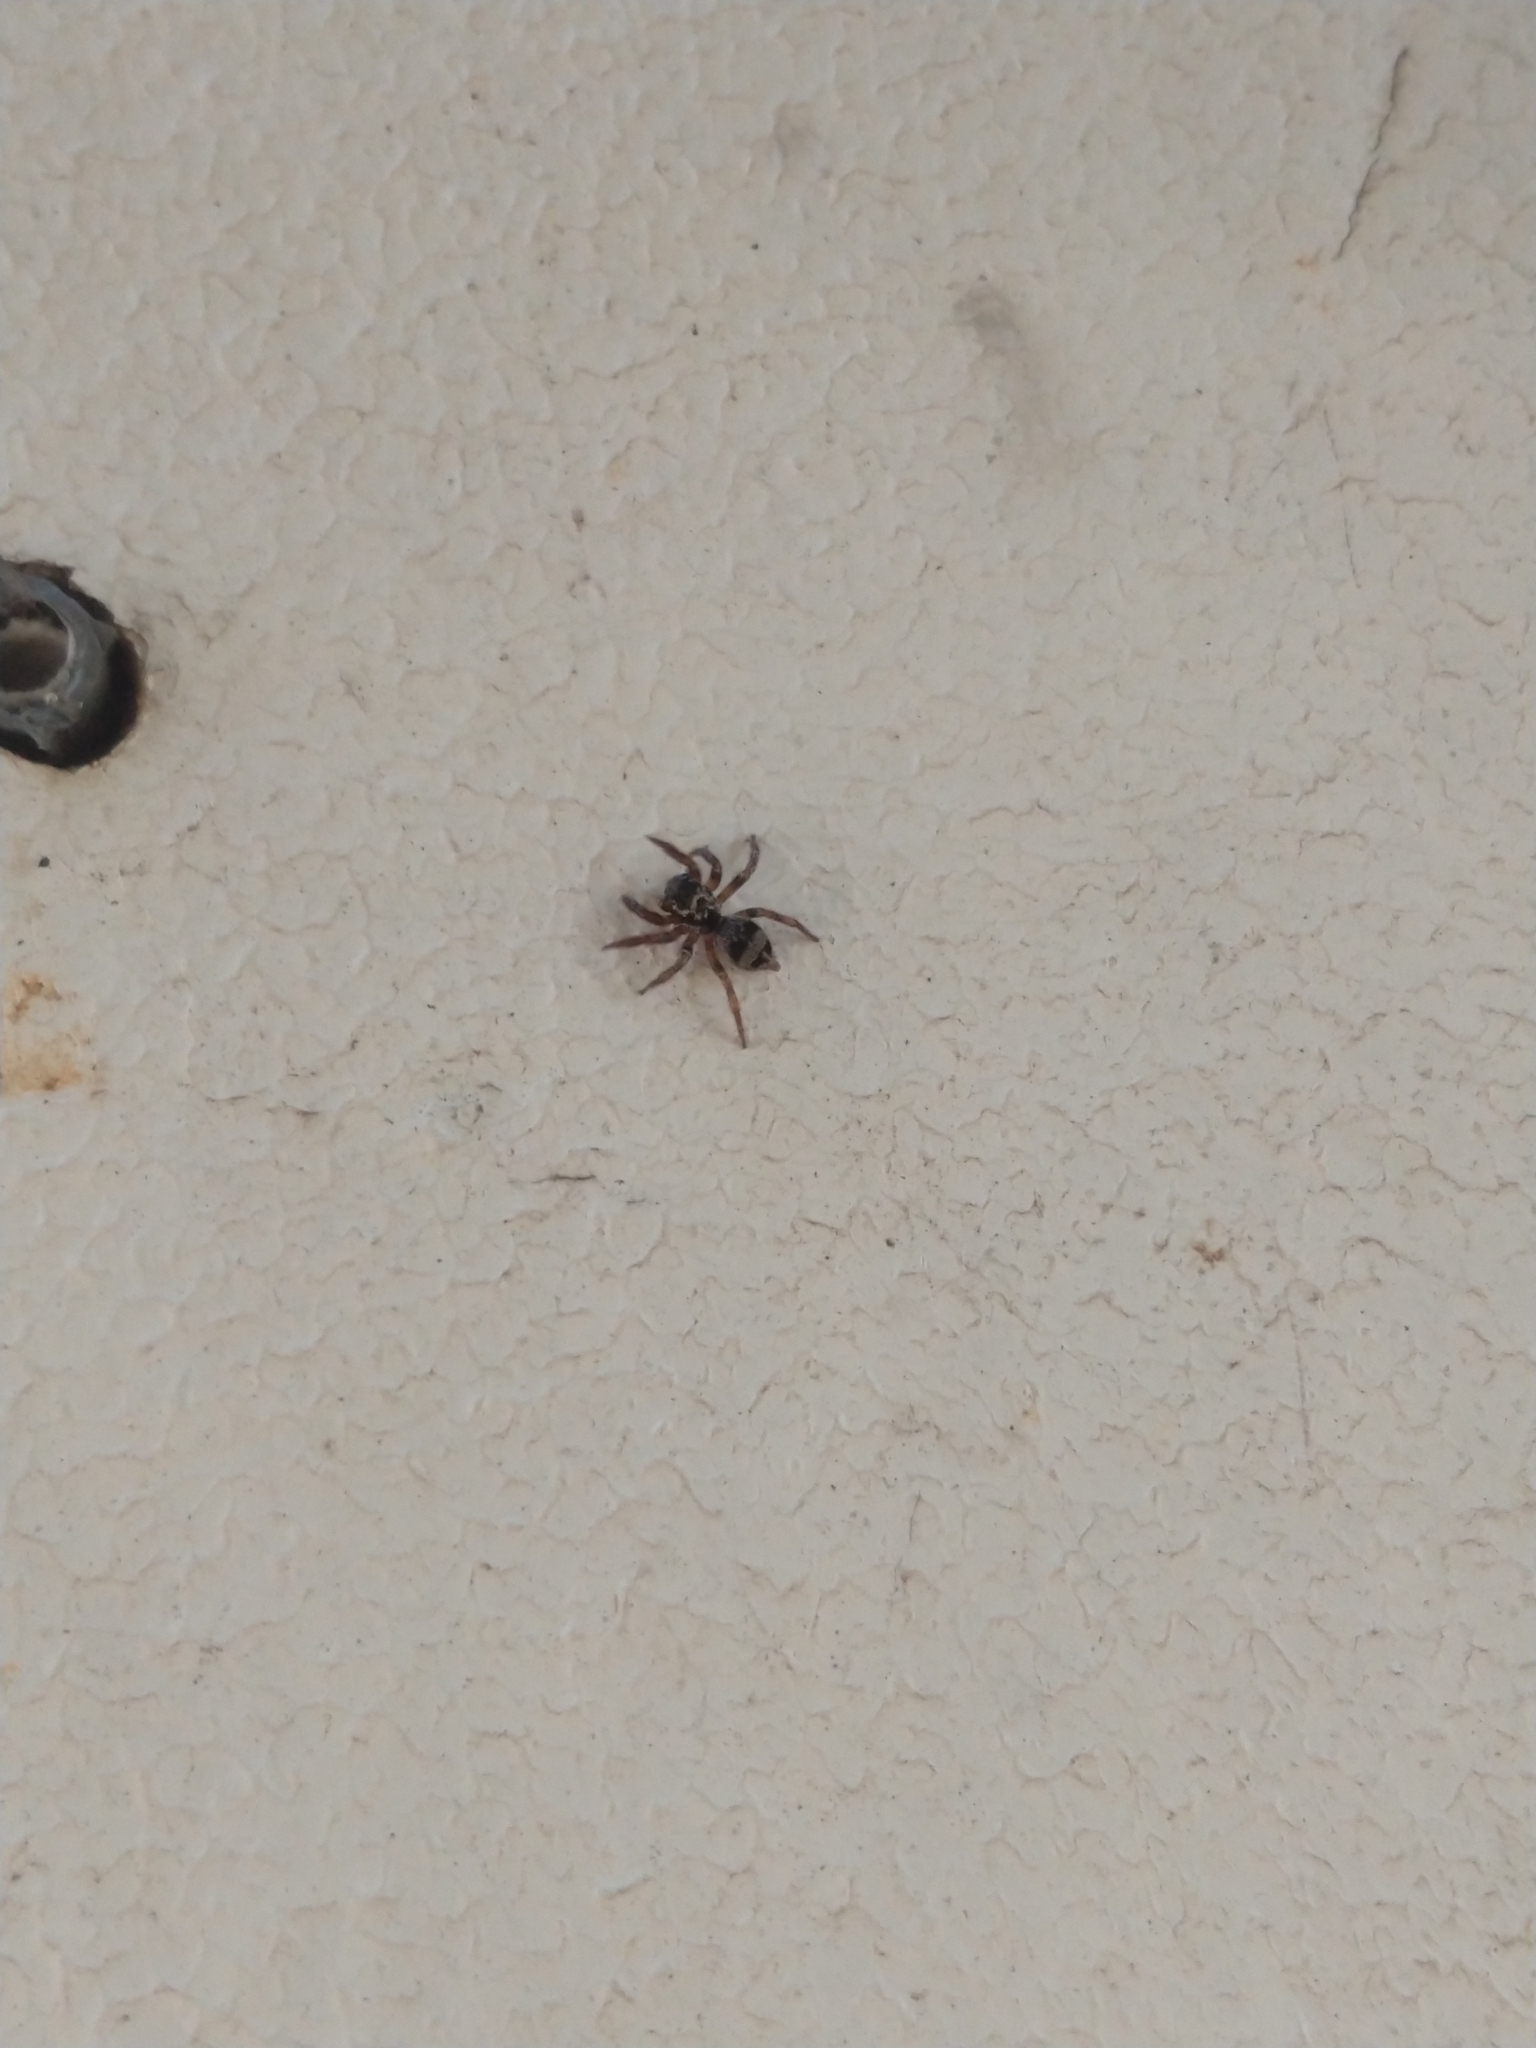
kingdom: Animalia
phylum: Arthropoda
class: Arachnida
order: Araneae
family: Salticidae
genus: Corythalia
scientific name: Corythalia conferta
